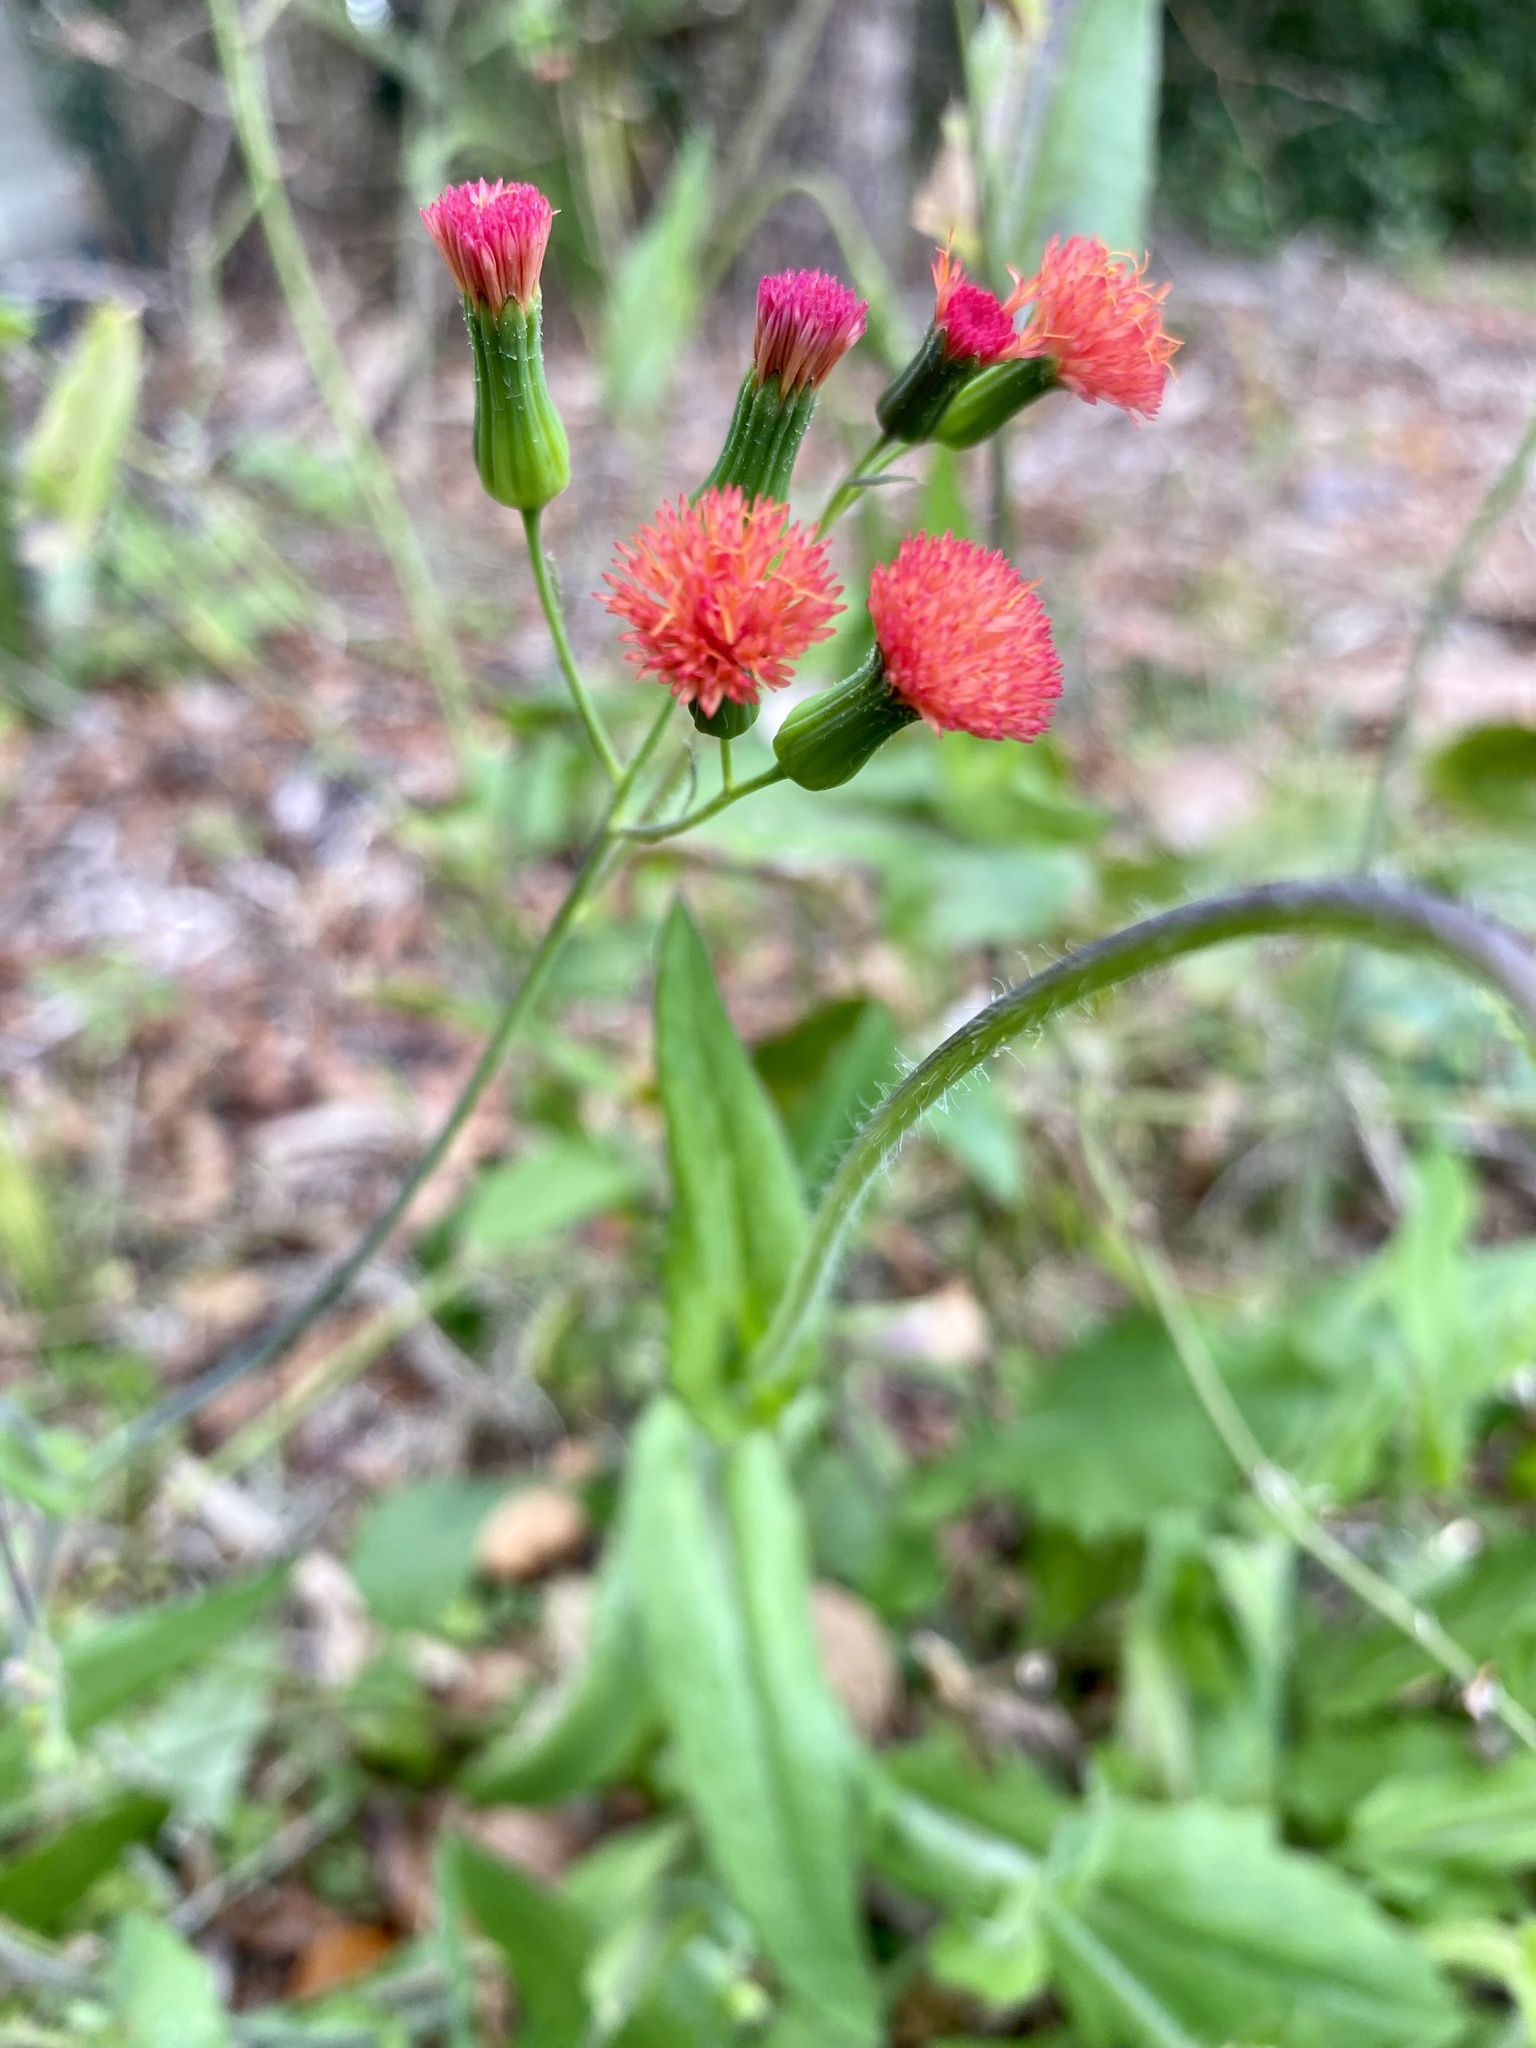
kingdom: Plantae
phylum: Tracheophyta
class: Magnoliopsida
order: Asterales
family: Asteraceae
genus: Emilia
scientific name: Emilia fosbergii
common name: Florida tasselflower
